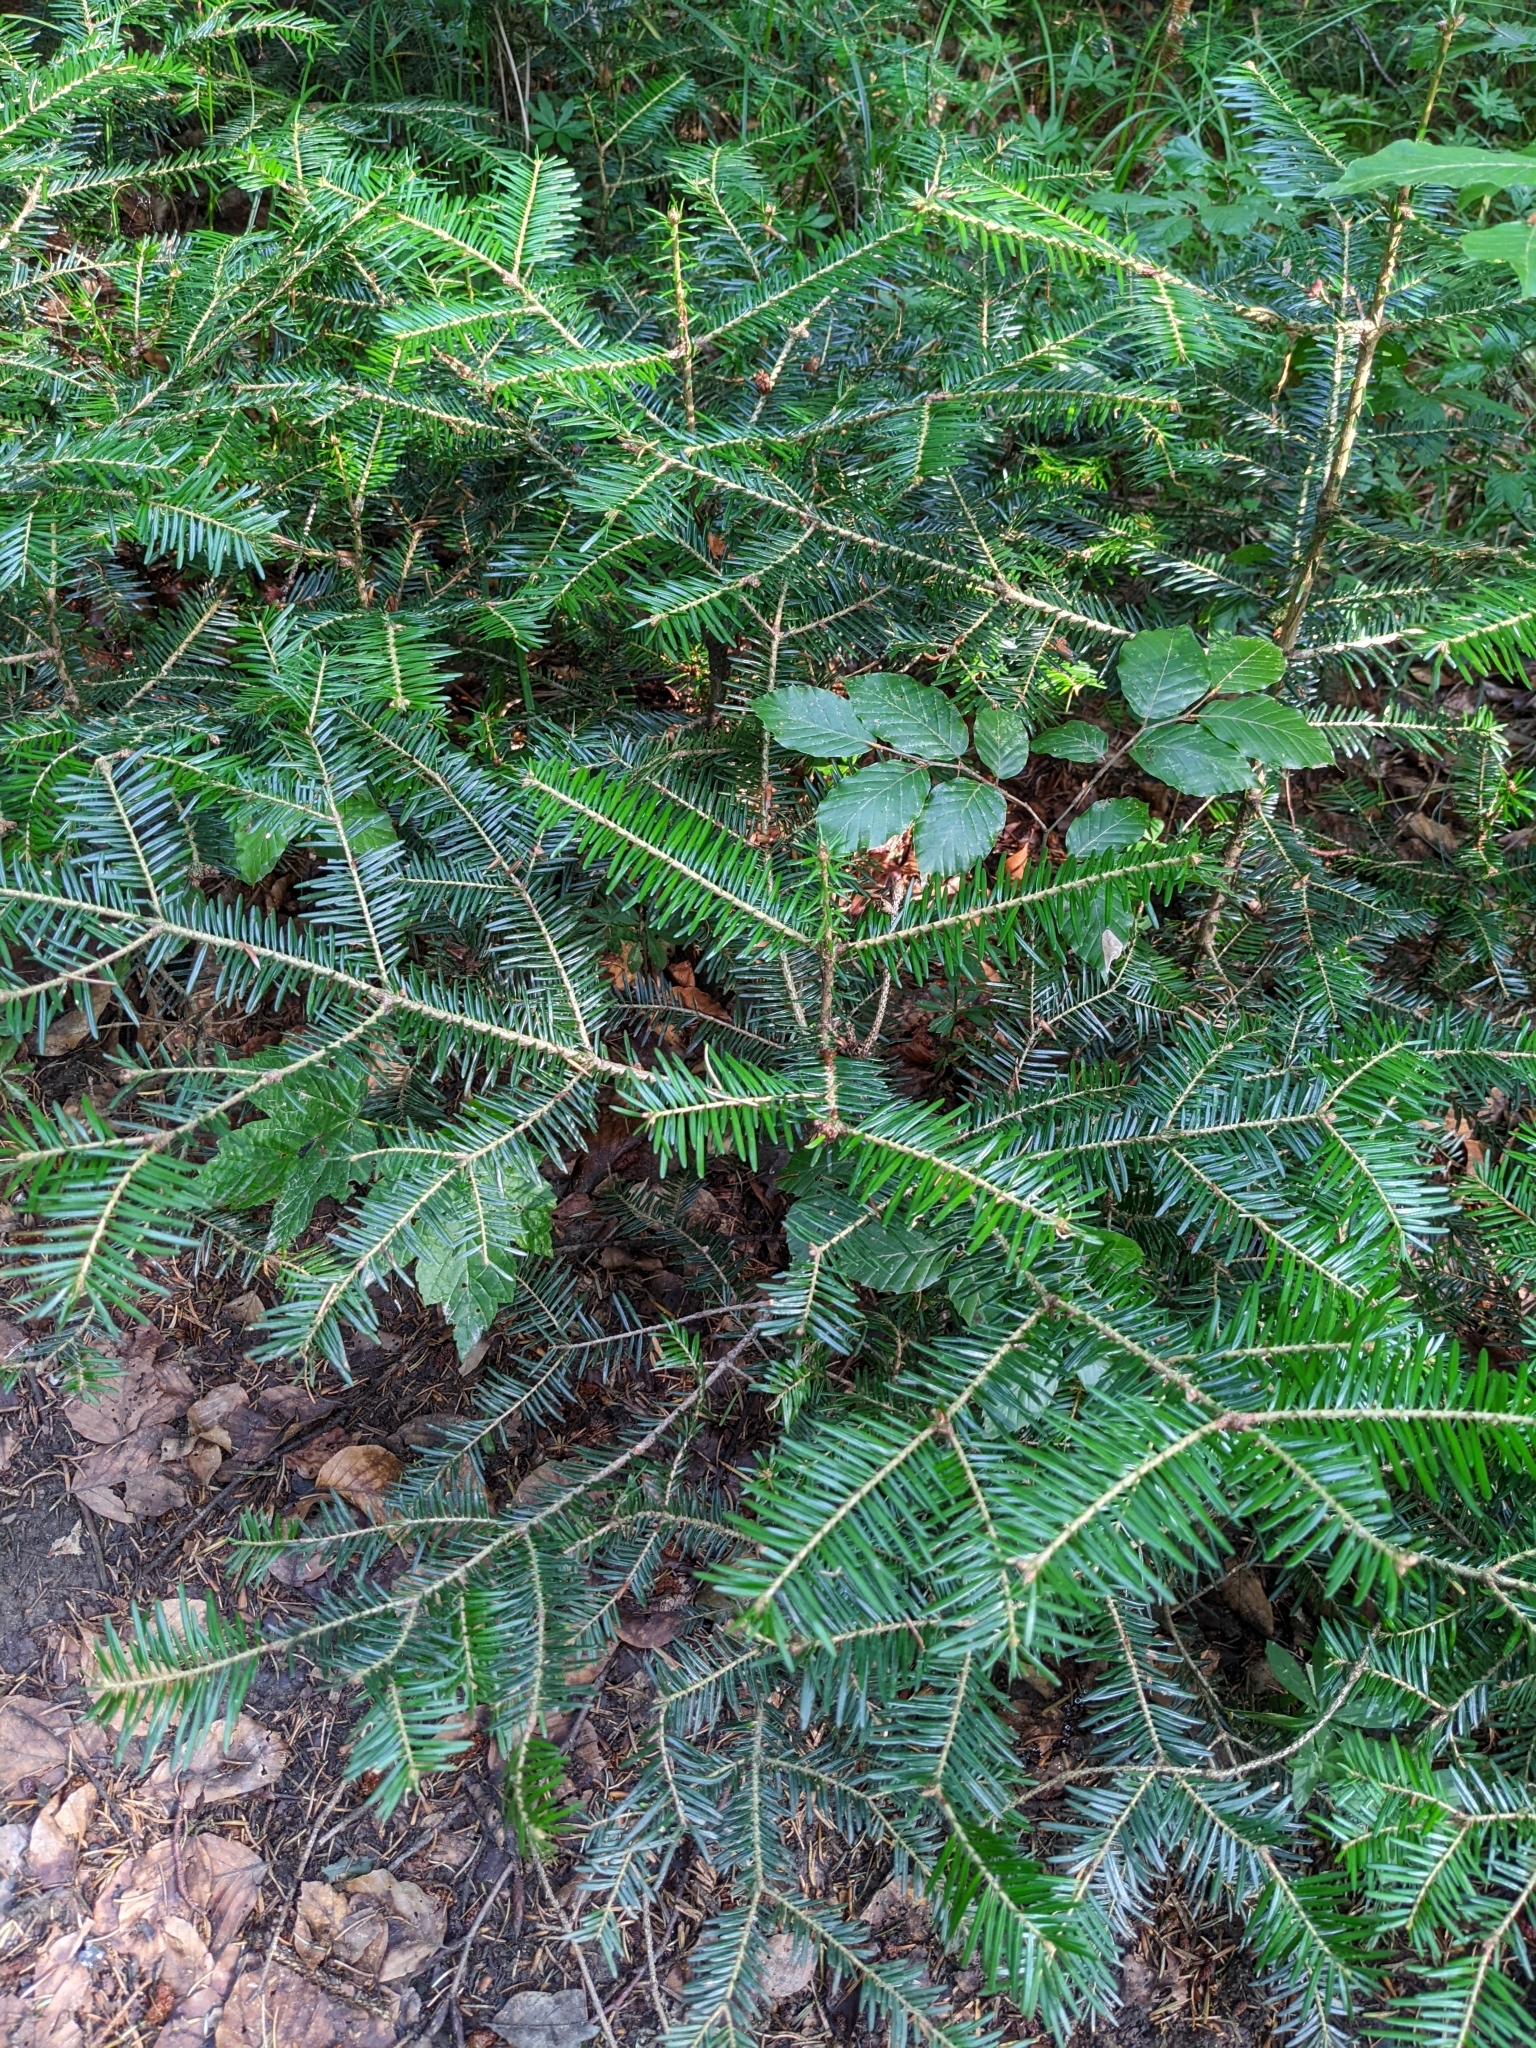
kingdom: Plantae
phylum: Tracheophyta
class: Pinopsida
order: Pinales
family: Pinaceae
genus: Abies
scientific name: Abies alba
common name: Silver fir
